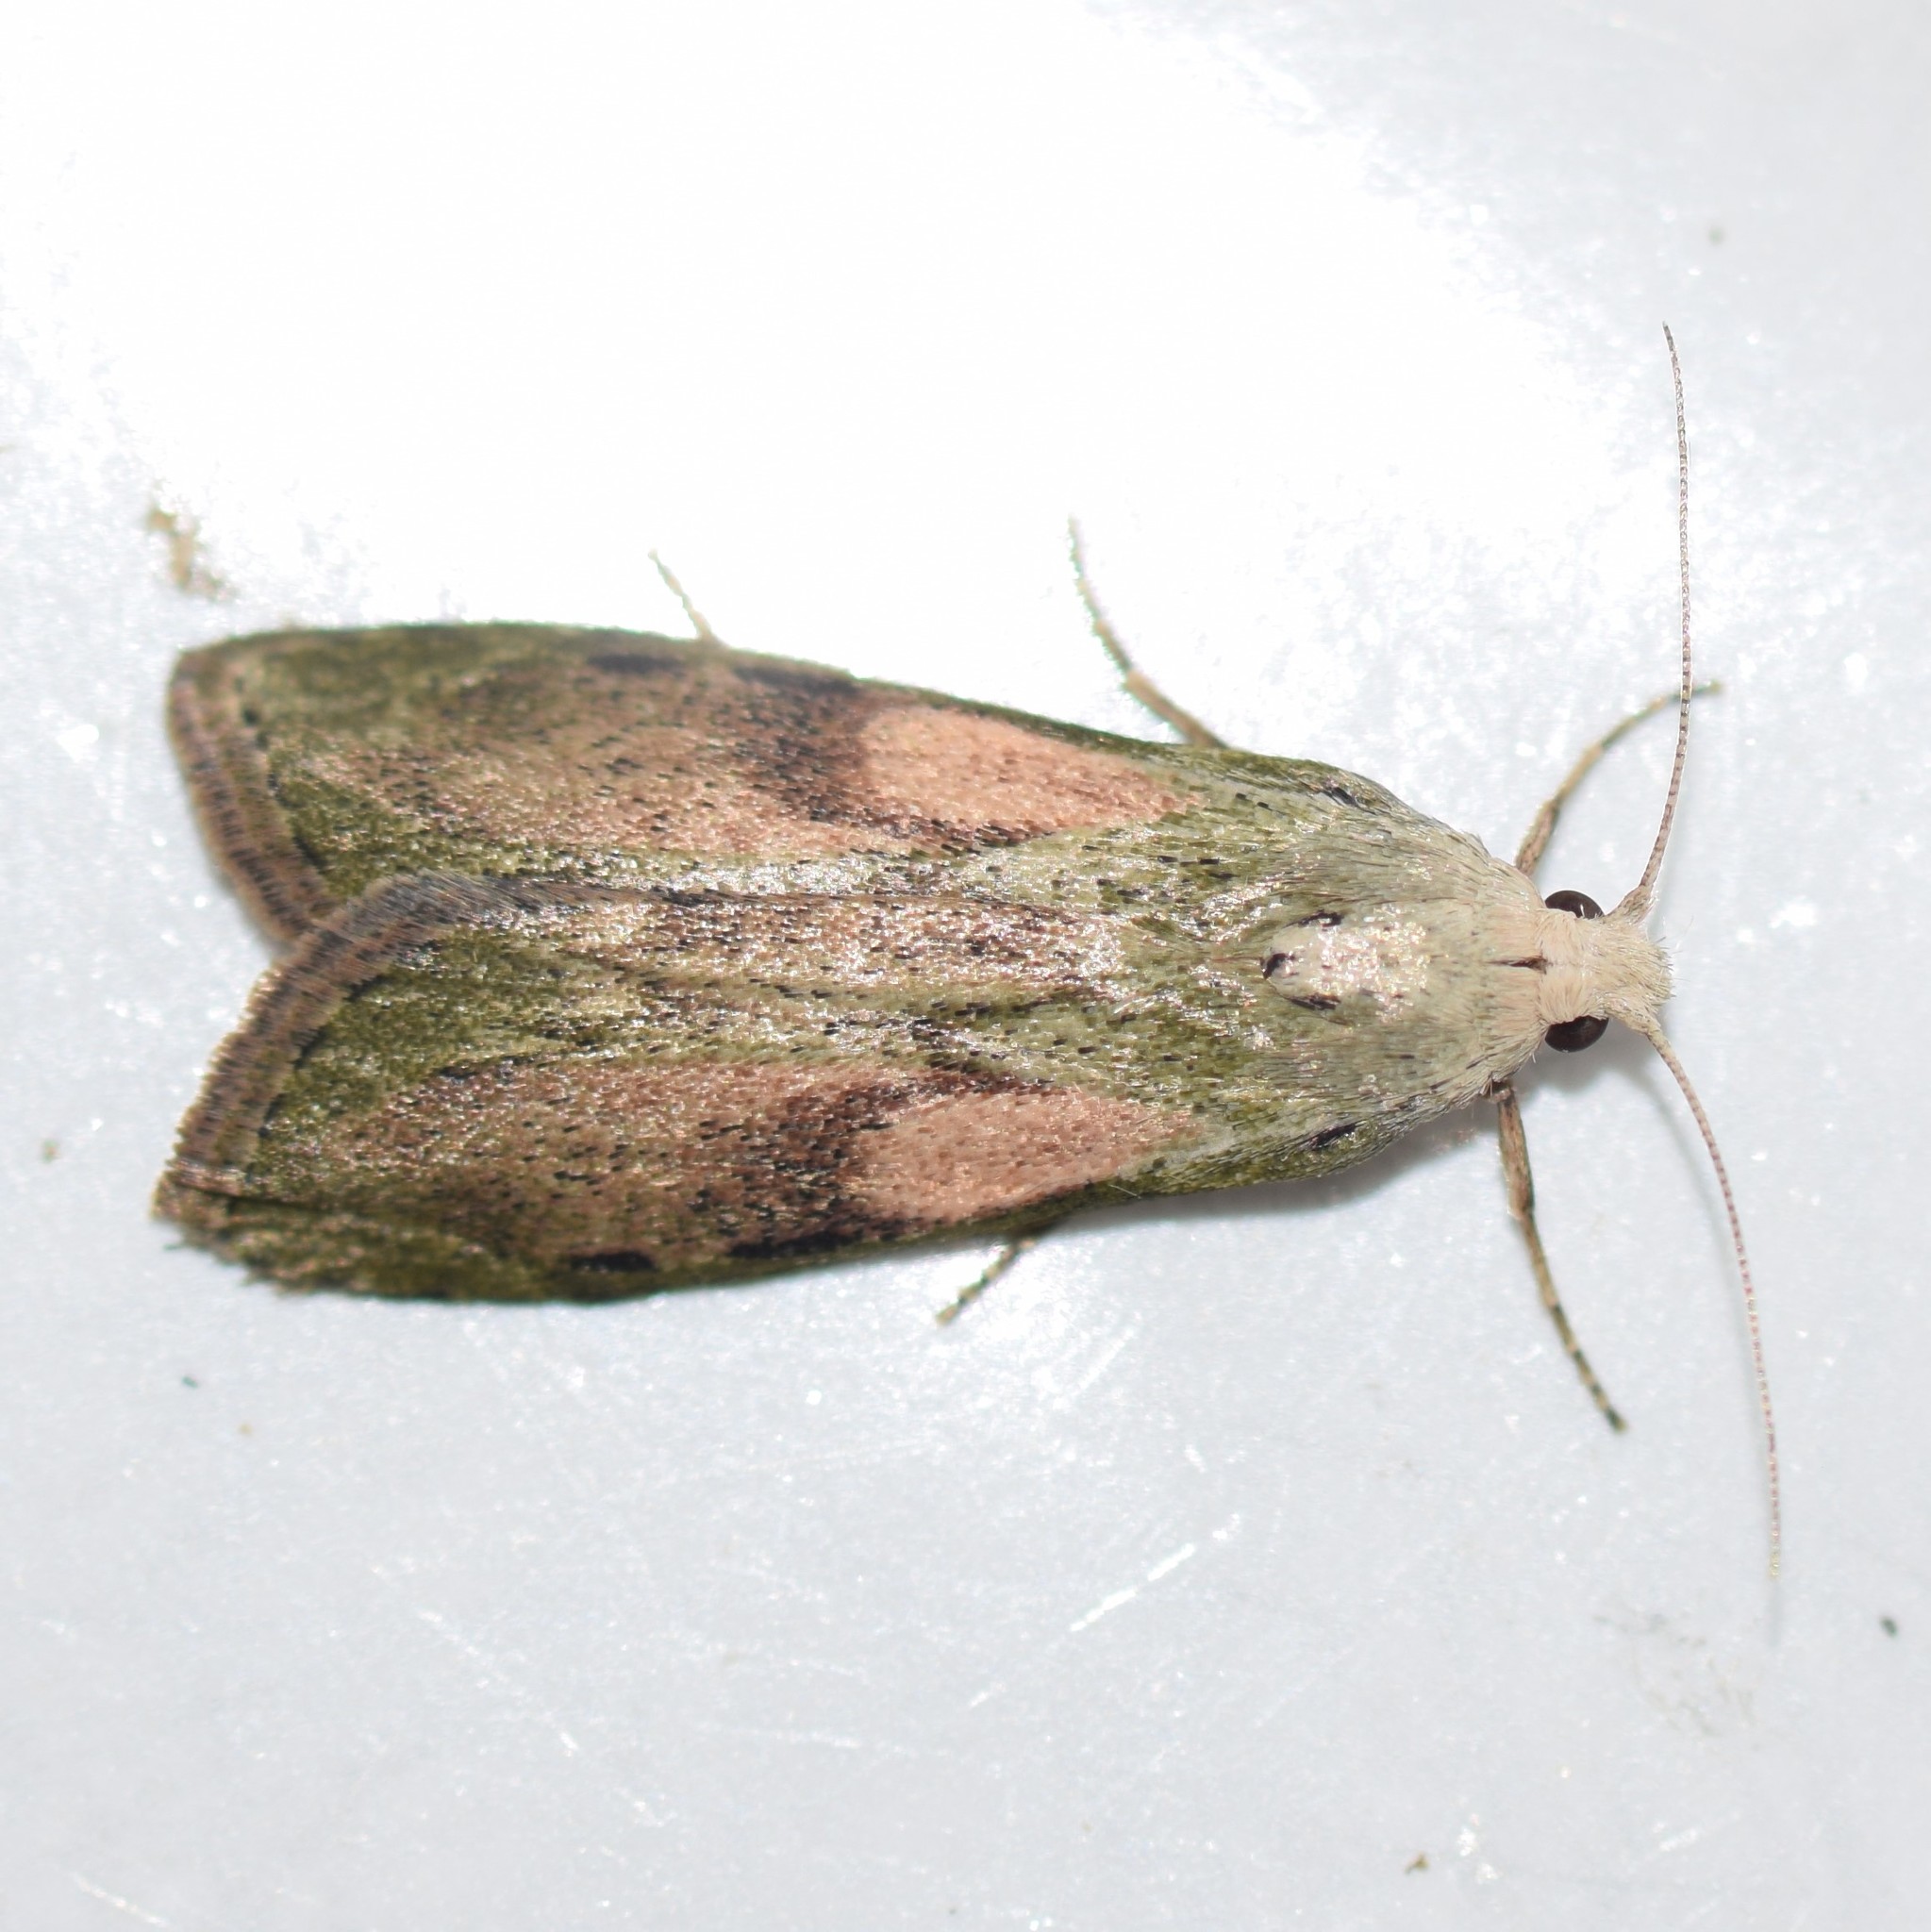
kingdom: Animalia
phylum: Arthropoda
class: Insecta
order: Lepidoptera
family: Pyralidae
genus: Aphomia
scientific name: Aphomia sociella
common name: Bee moth
